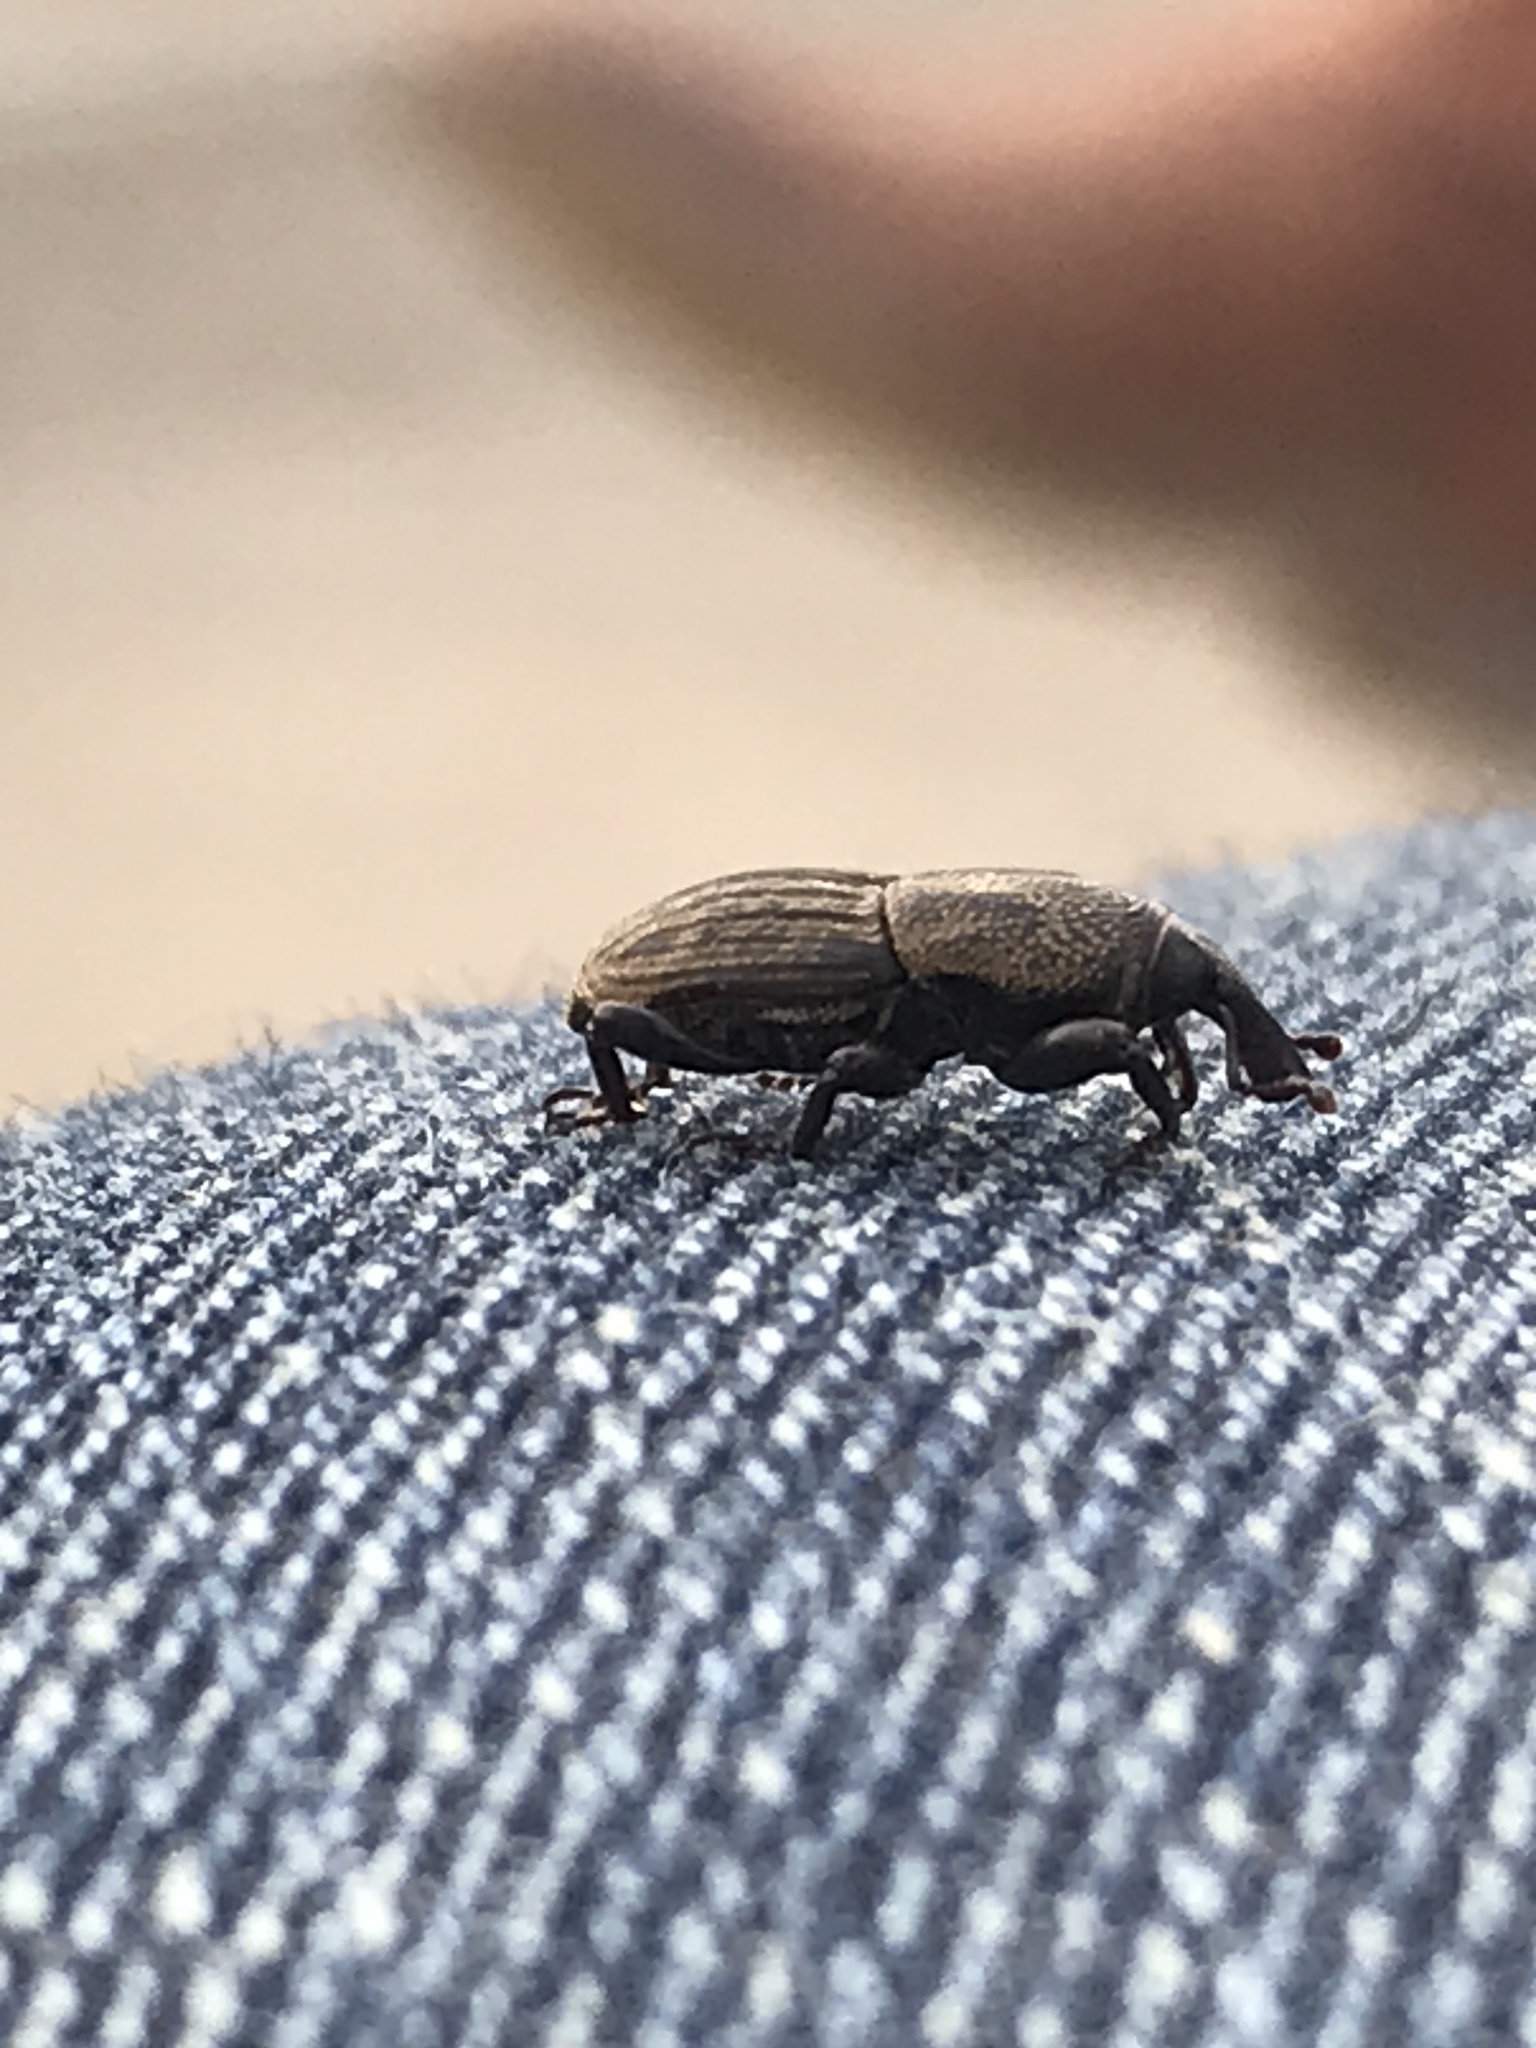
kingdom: Animalia
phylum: Arthropoda
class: Insecta
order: Coleoptera
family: Dryophthoridae
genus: Sphenophorus
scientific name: Sphenophorus compressirostris
